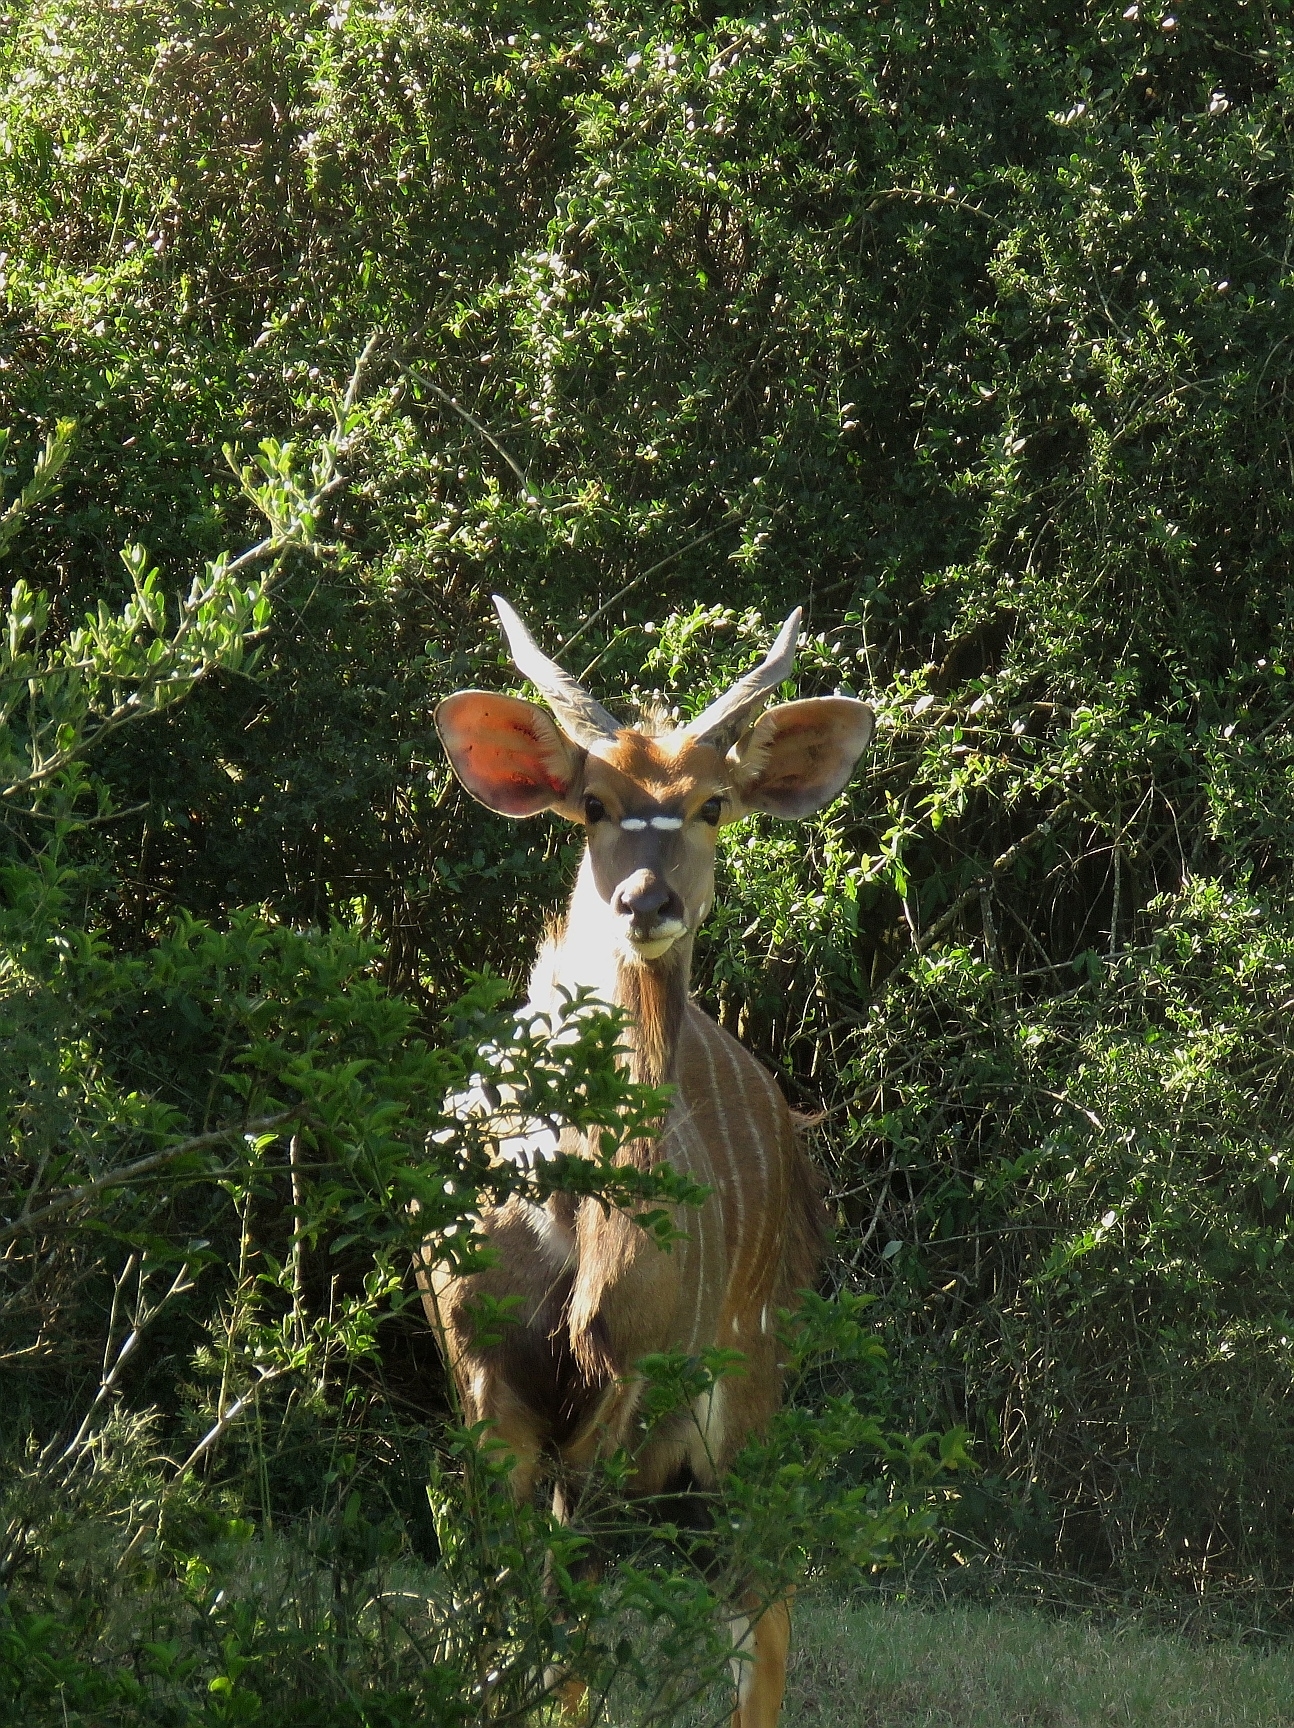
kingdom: Animalia
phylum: Chordata
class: Mammalia
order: Artiodactyla
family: Bovidae
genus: Tragelaphus
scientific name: Tragelaphus angasii
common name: Nyala
